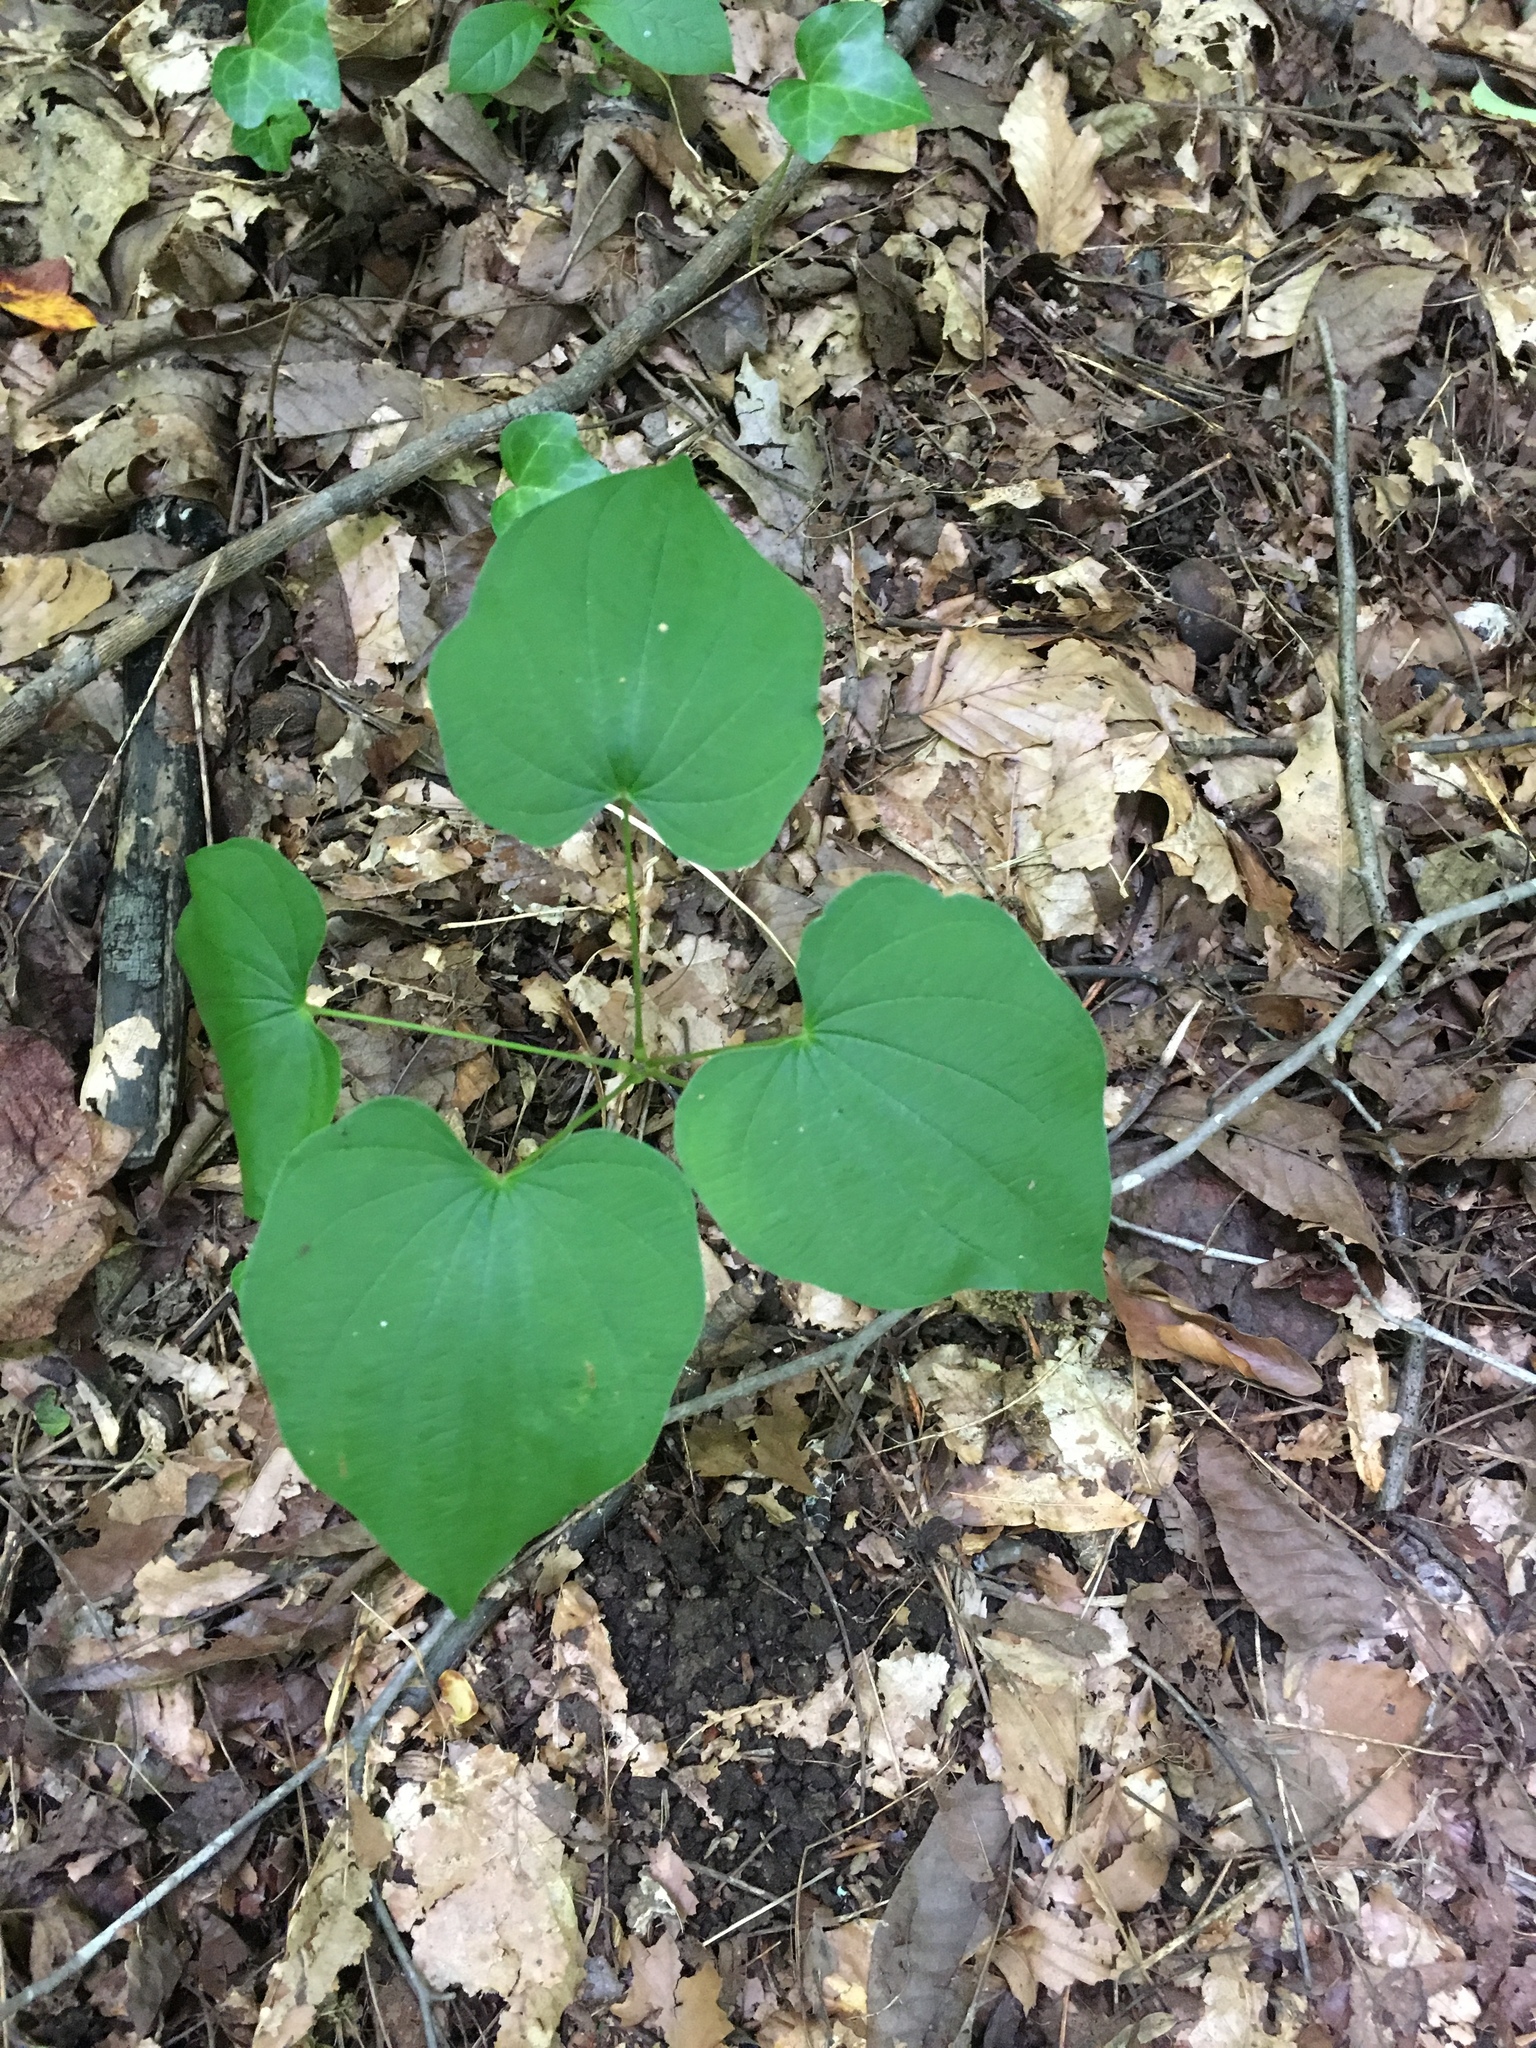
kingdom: Plantae
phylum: Tracheophyta
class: Liliopsida
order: Dioscoreales
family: Dioscoreaceae
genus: Dioscorea
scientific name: Dioscorea villosa
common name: Wild yam
